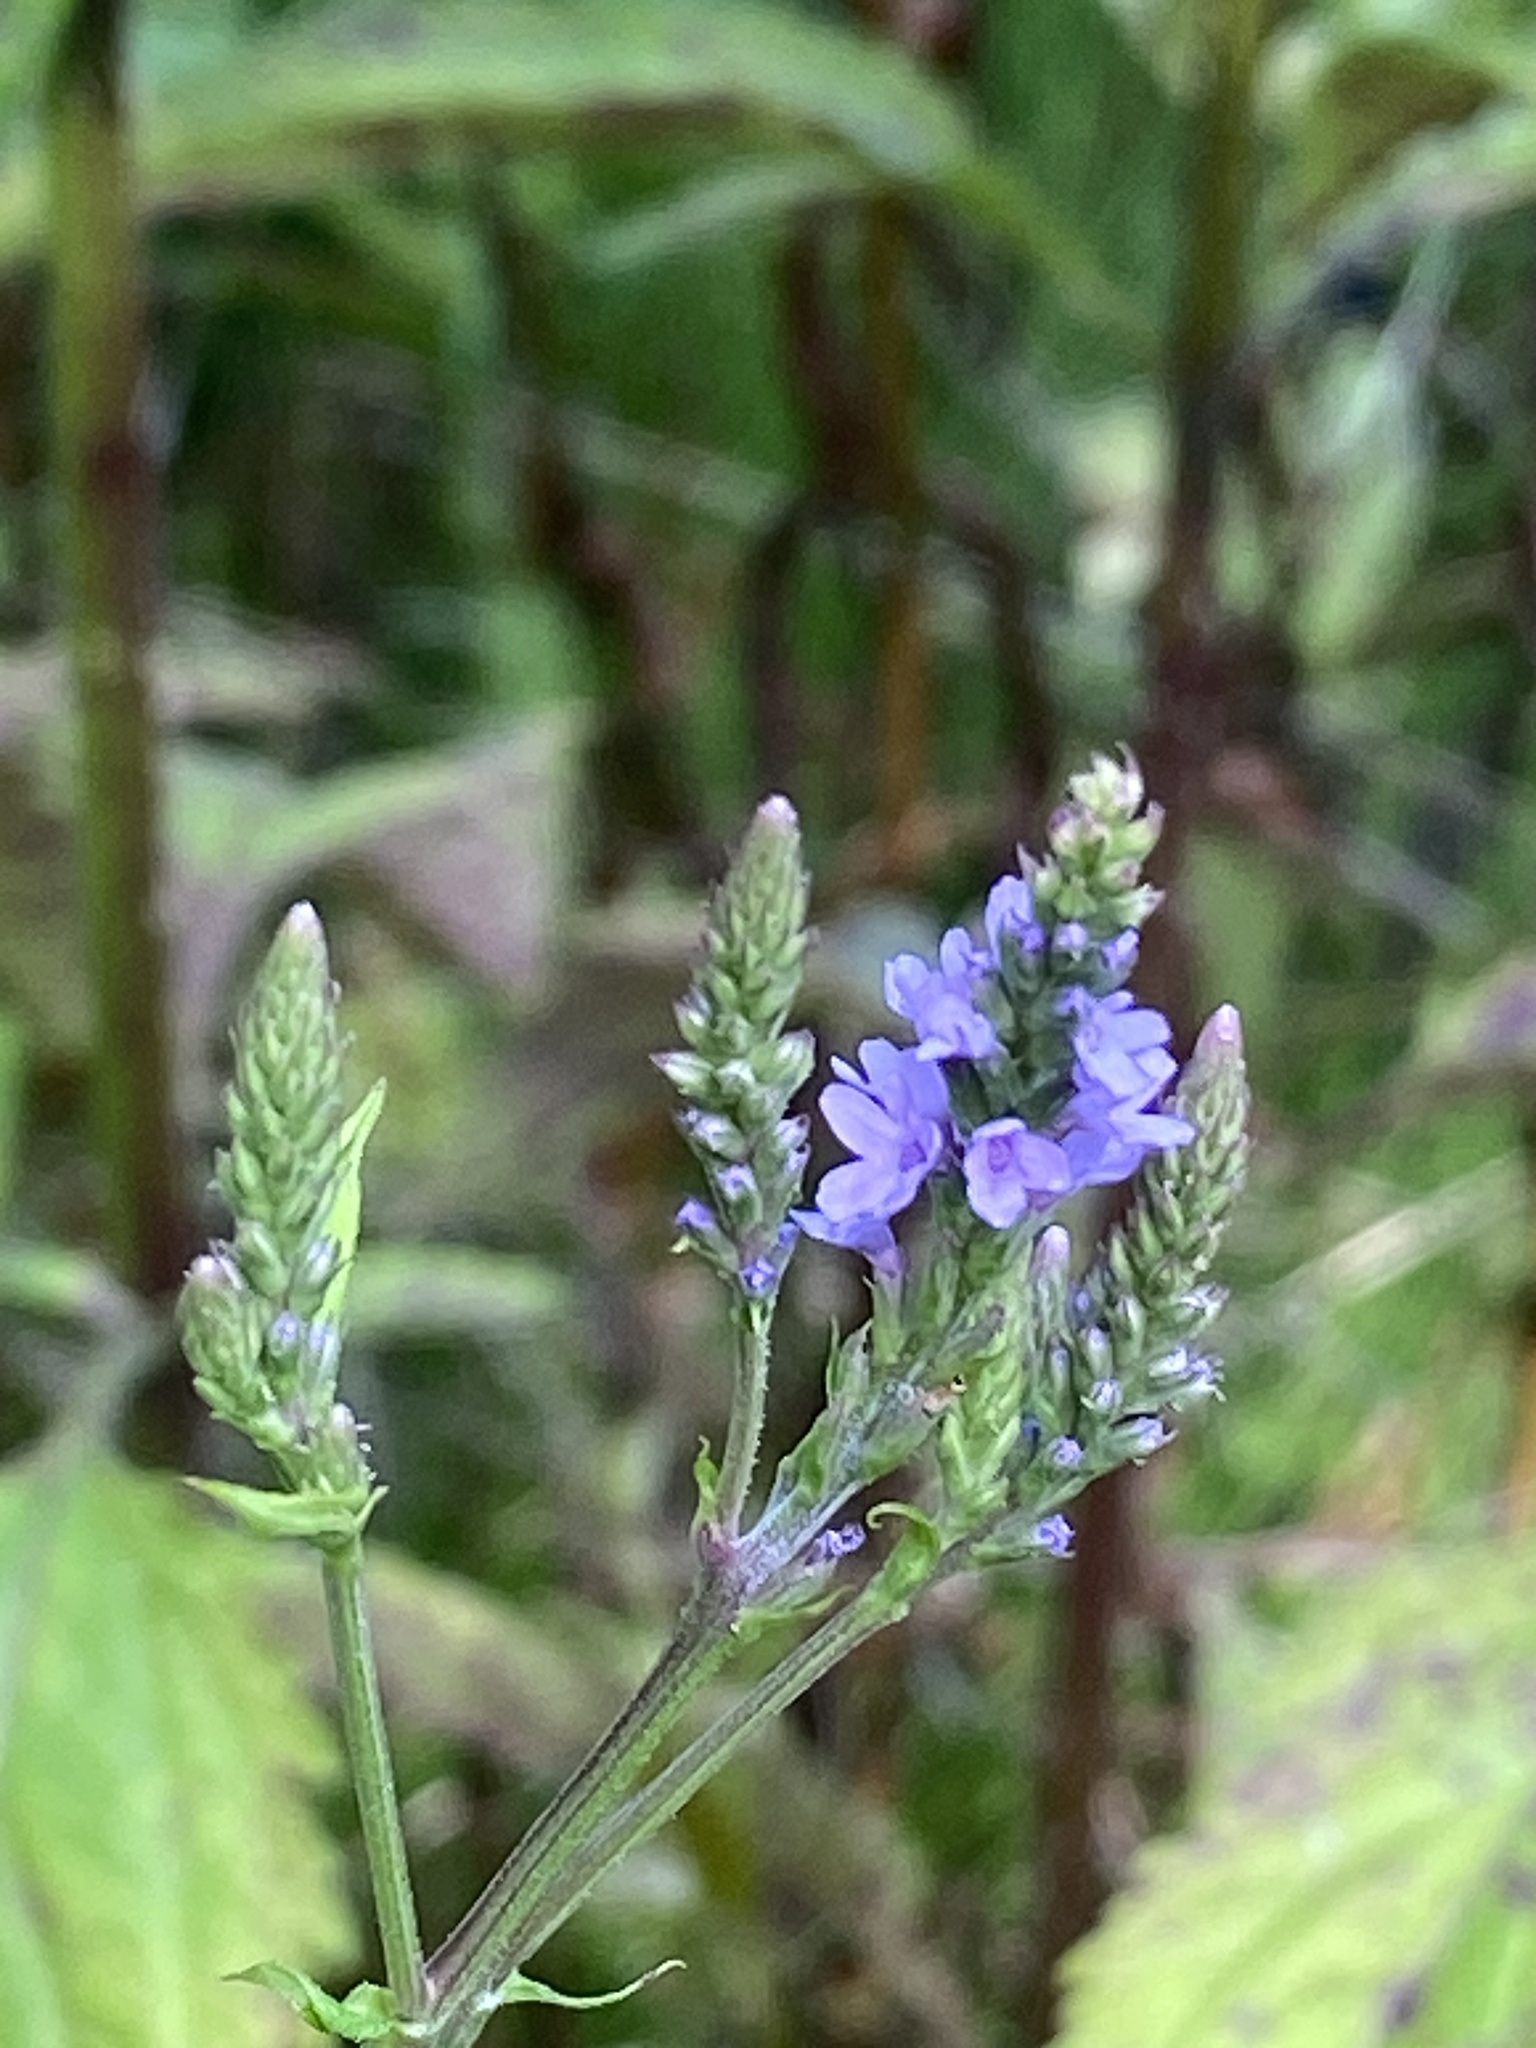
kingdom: Plantae
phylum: Tracheophyta
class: Magnoliopsida
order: Lamiales
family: Verbenaceae
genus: Verbena
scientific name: Verbena hastata
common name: American blue vervain
